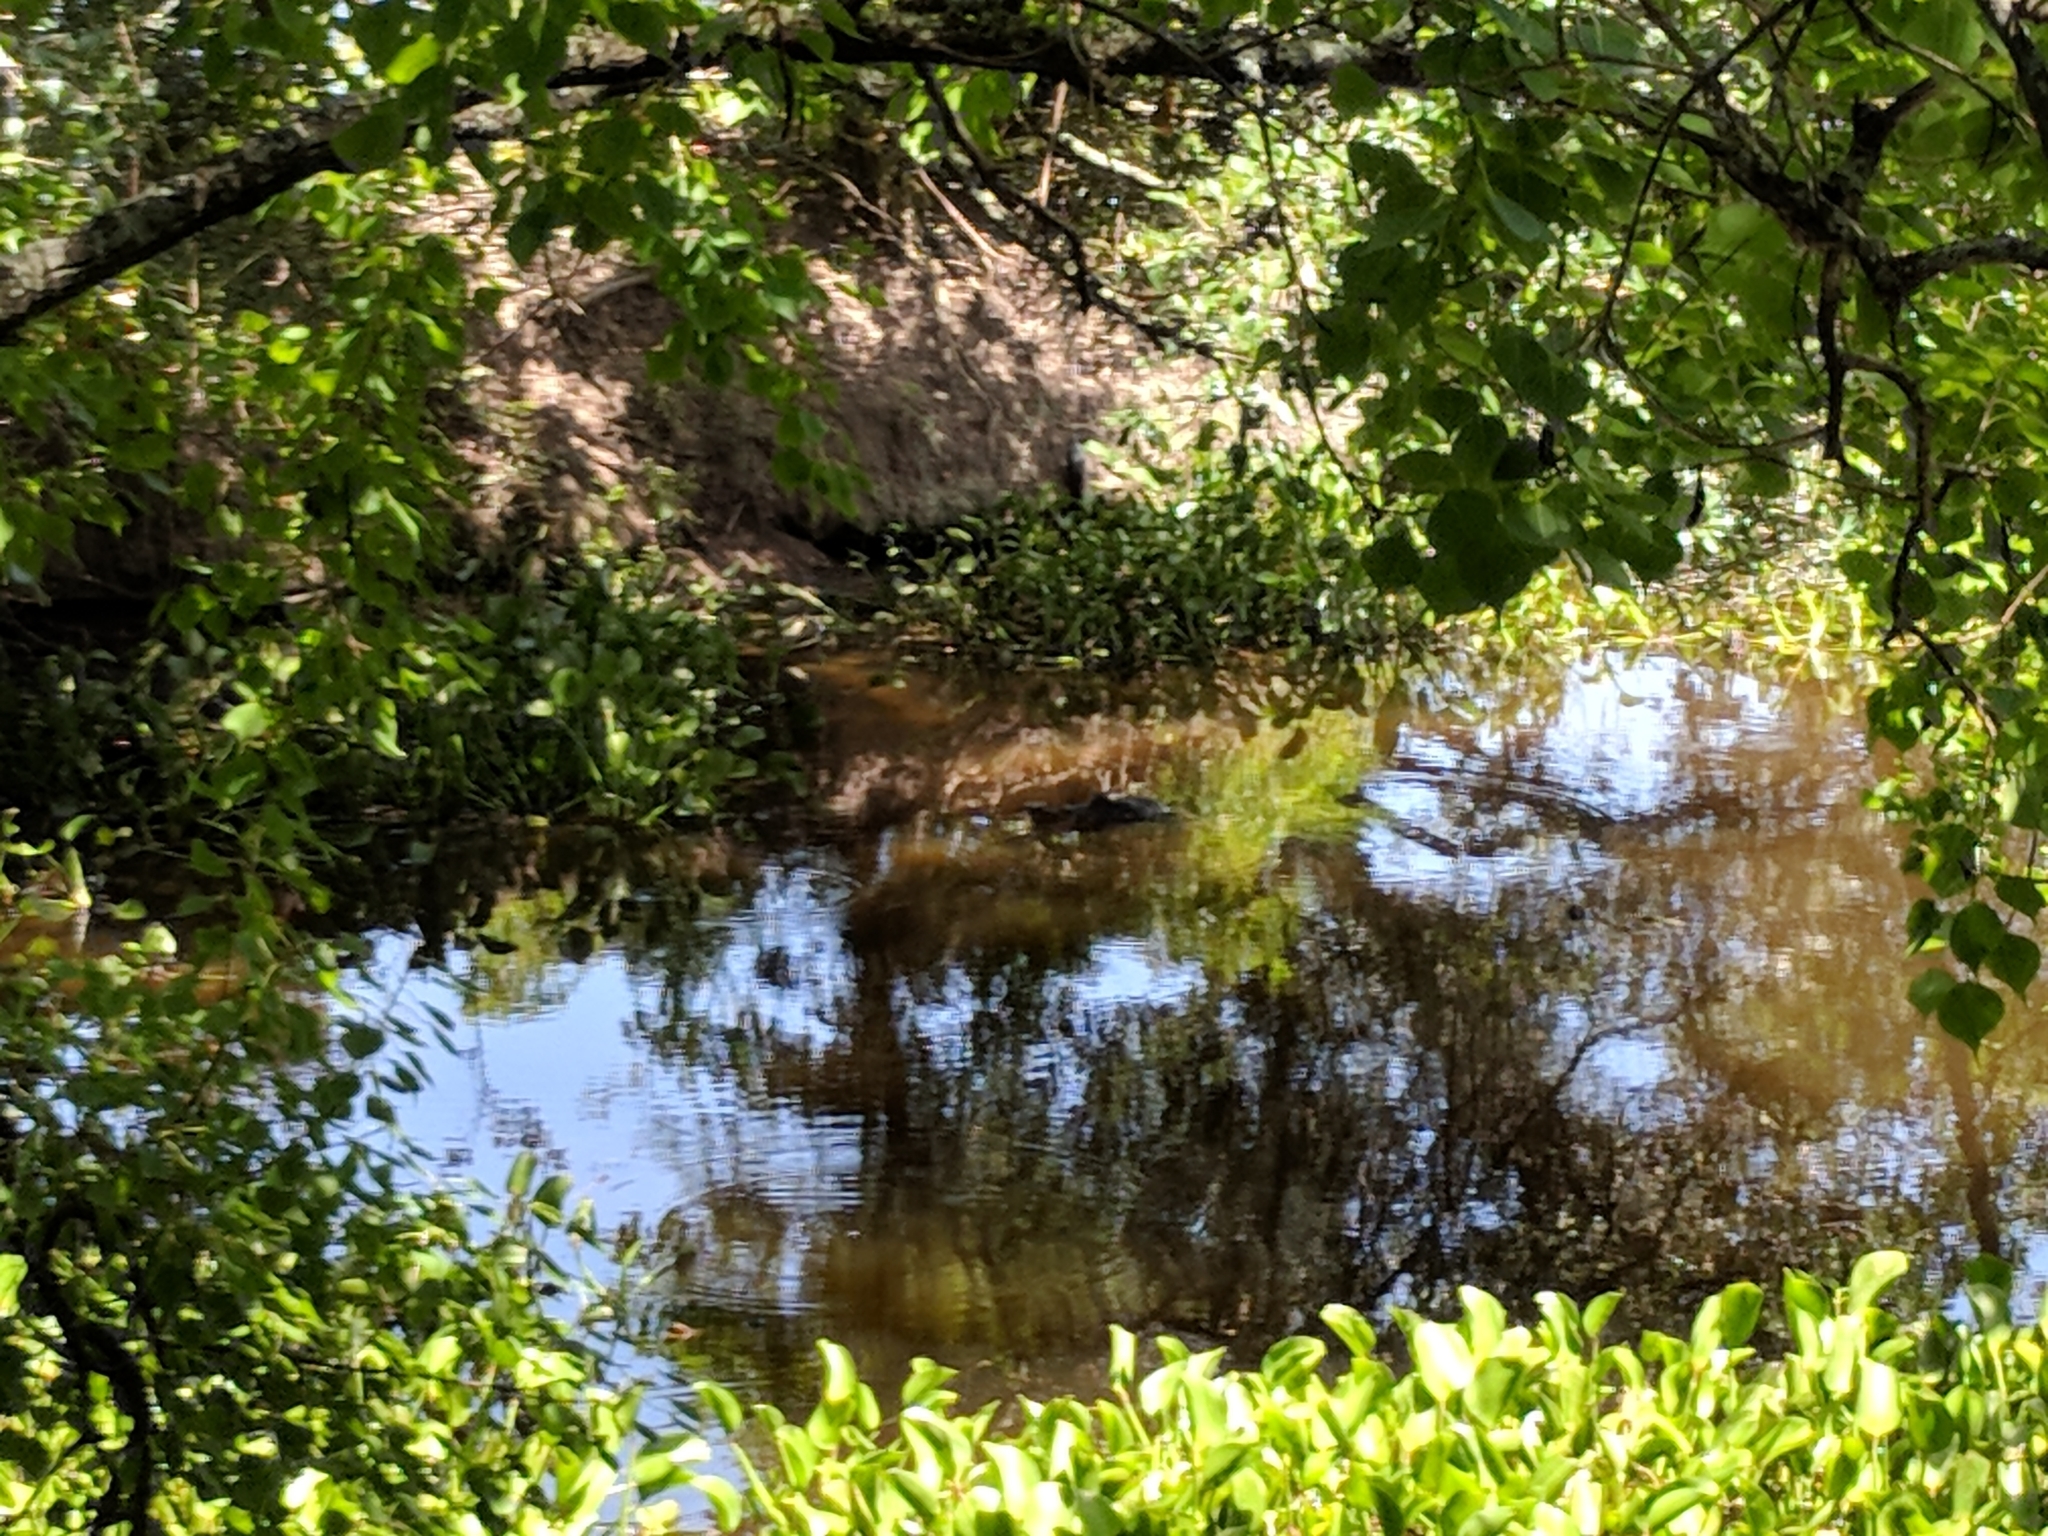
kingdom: Animalia
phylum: Chordata
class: Crocodylia
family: Alligatoridae
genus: Alligator
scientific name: Alligator mississippiensis
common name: American alligator
